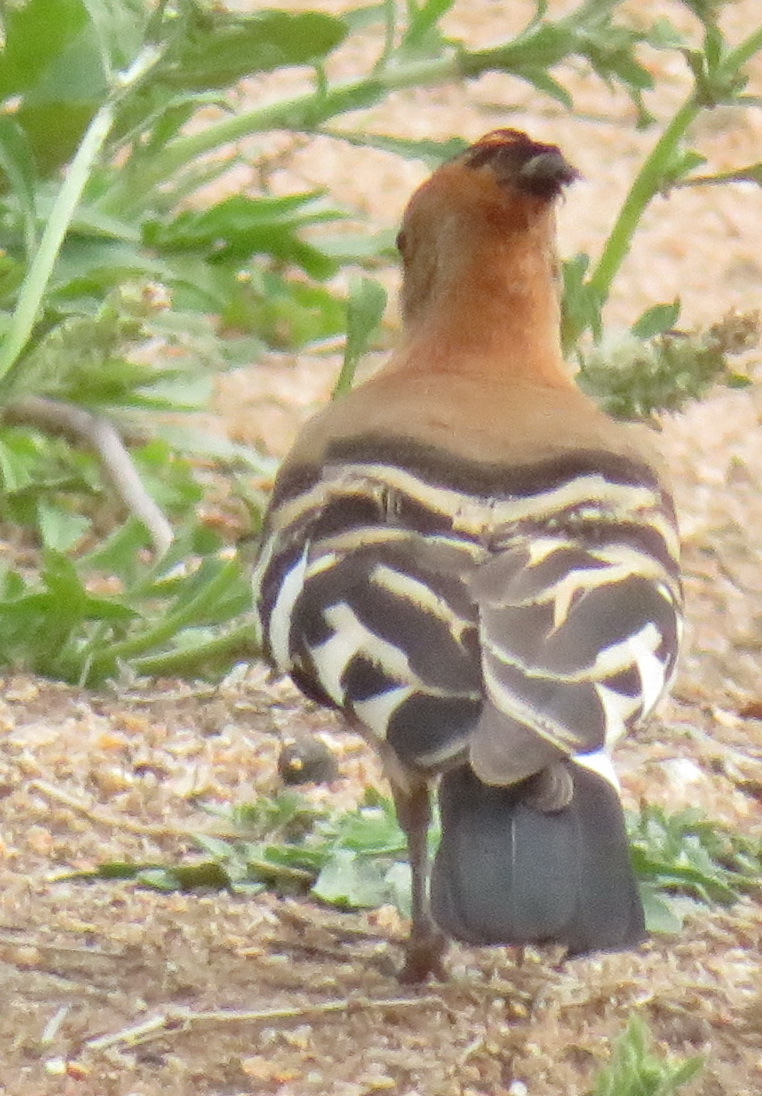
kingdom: Animalia
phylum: Chordata
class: Aves
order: Bucerotiformes
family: Upupidae
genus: Upupa
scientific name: Upupa africana
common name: African hoopoe
